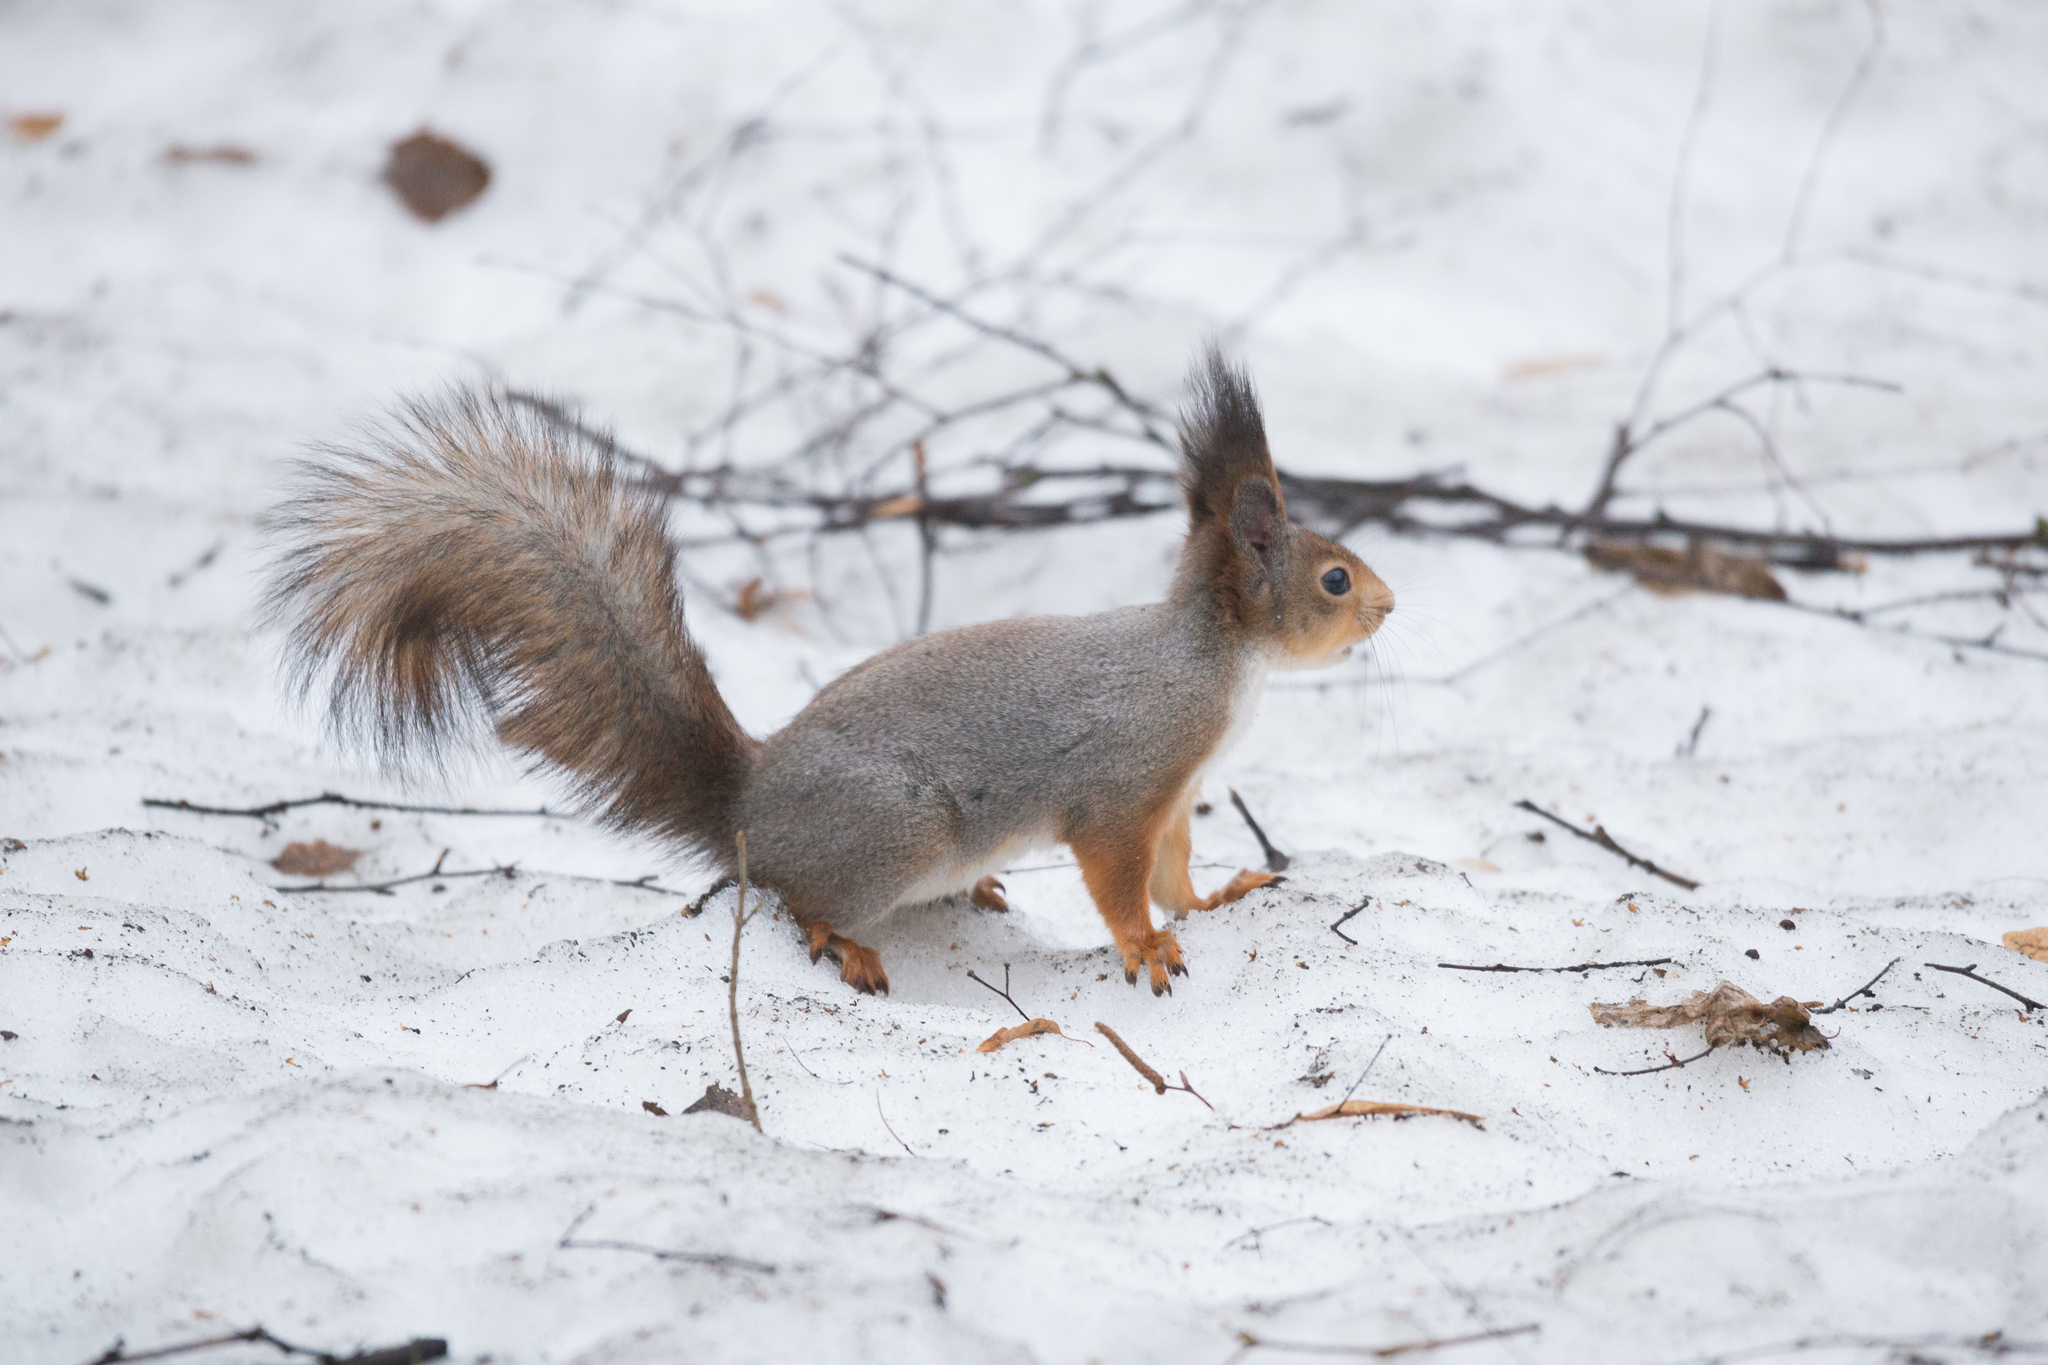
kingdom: Animalia
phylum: Chordata
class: Mammalia
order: Rodentia
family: Sciuridae
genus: Sciurus
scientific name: Sciurus vulgaris
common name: Eurasian red squirrel
